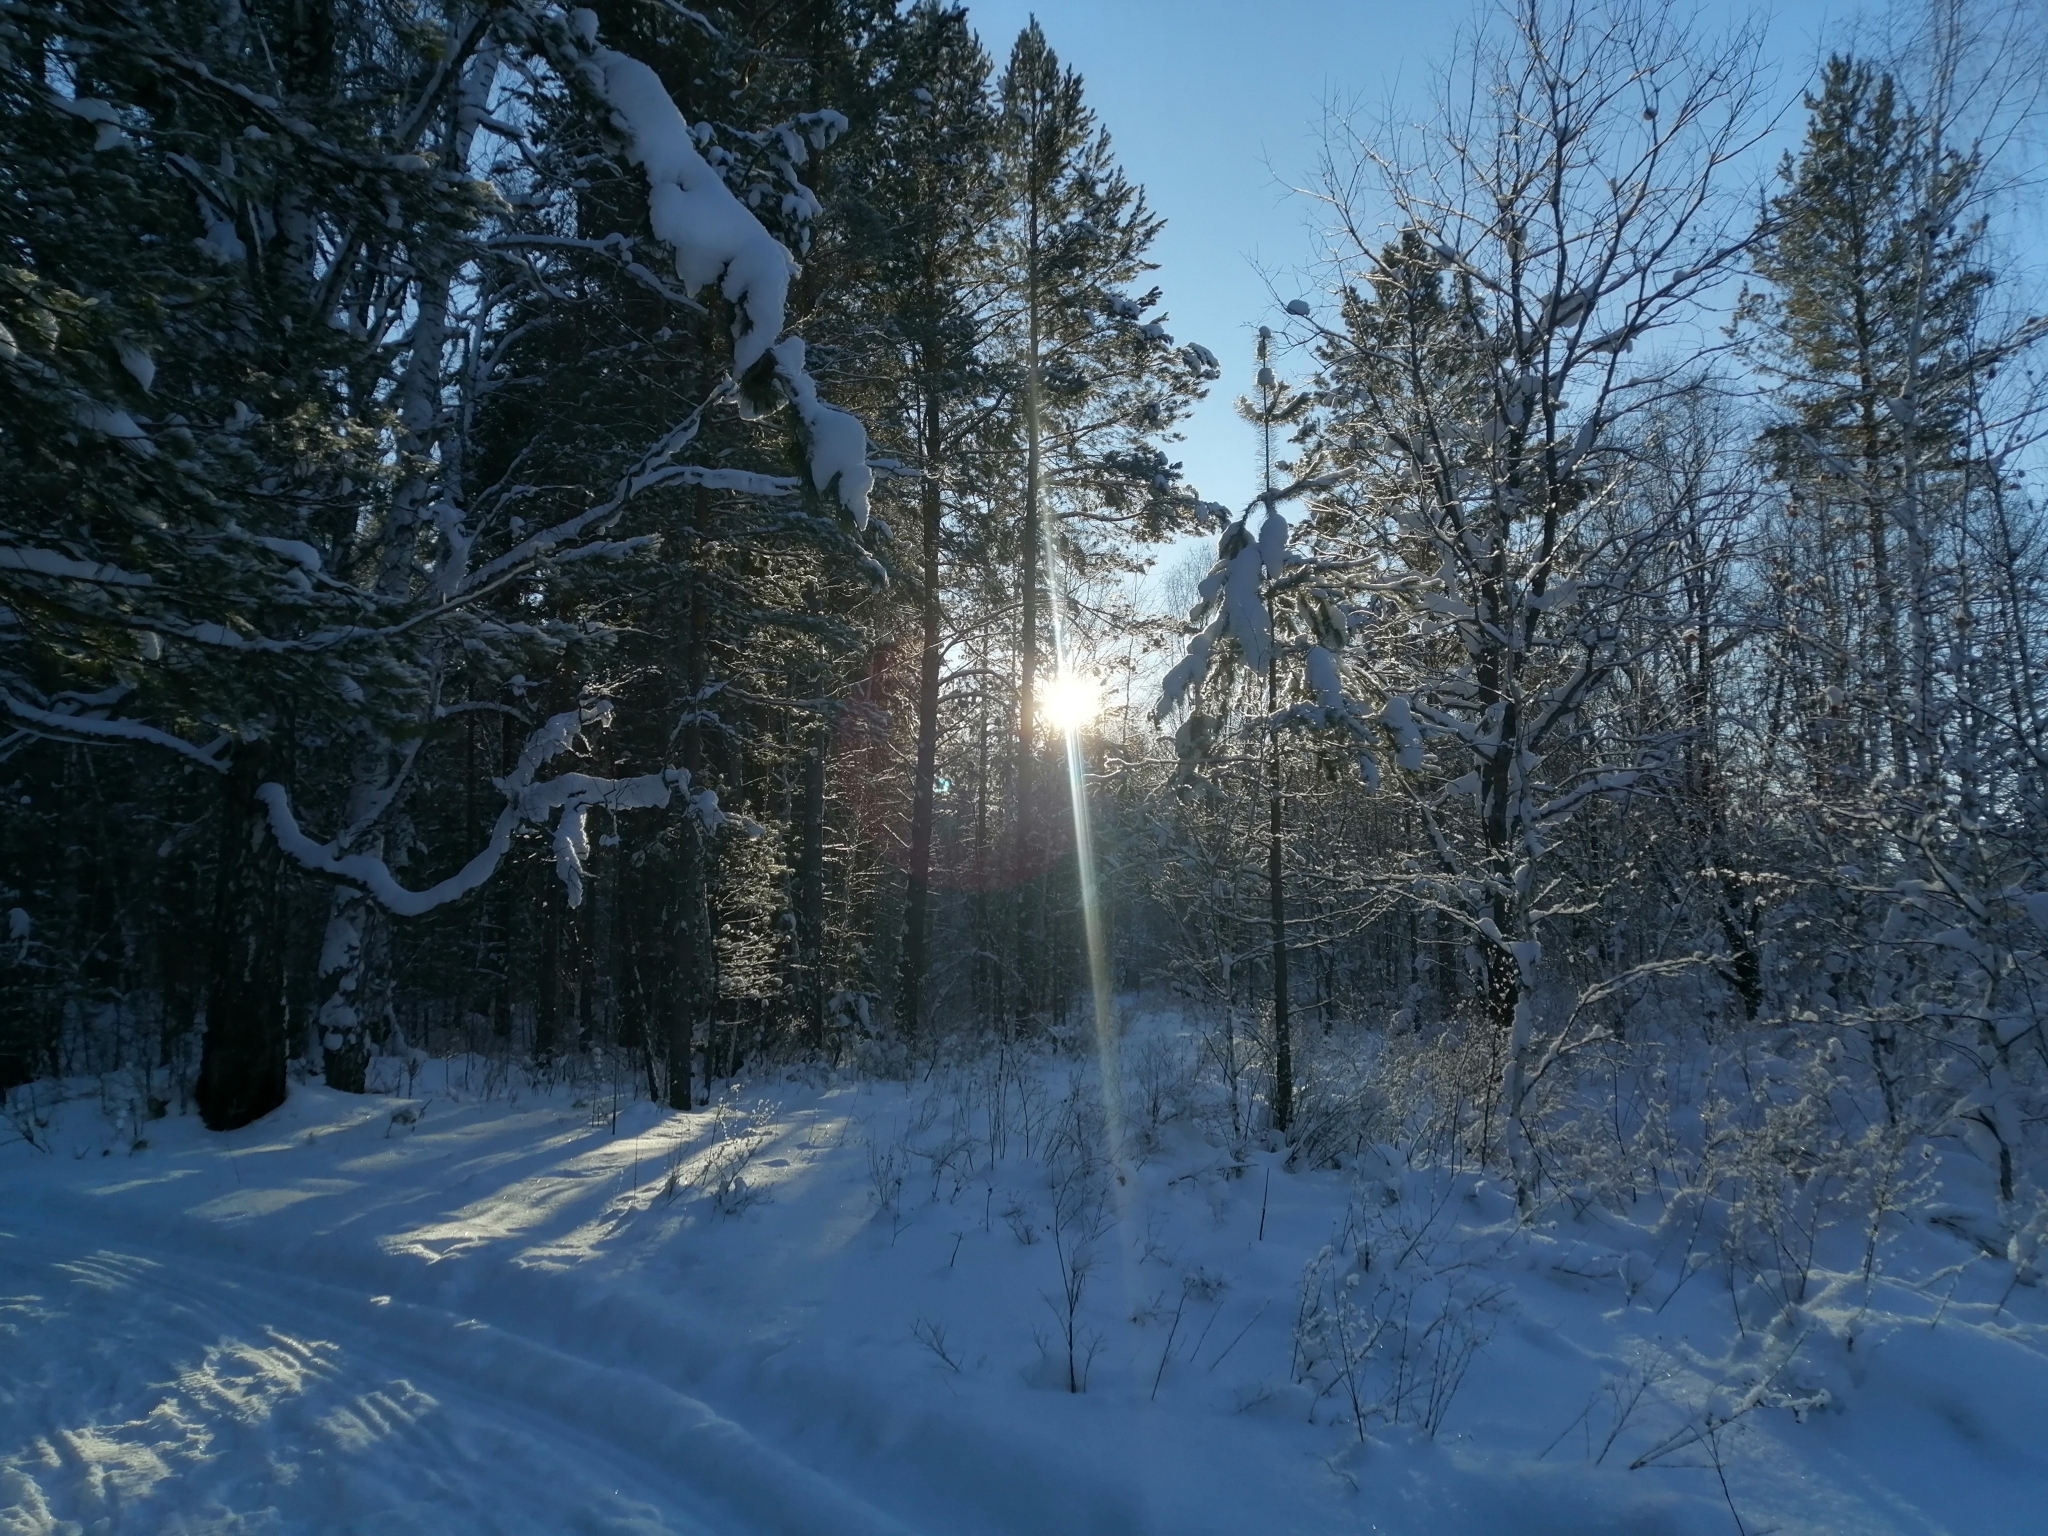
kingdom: Plantae
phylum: Tracheophyta
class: Pinopsida
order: Pinales
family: Pinaceae
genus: Pinus
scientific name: Pinus sylvestris
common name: Scots pine
